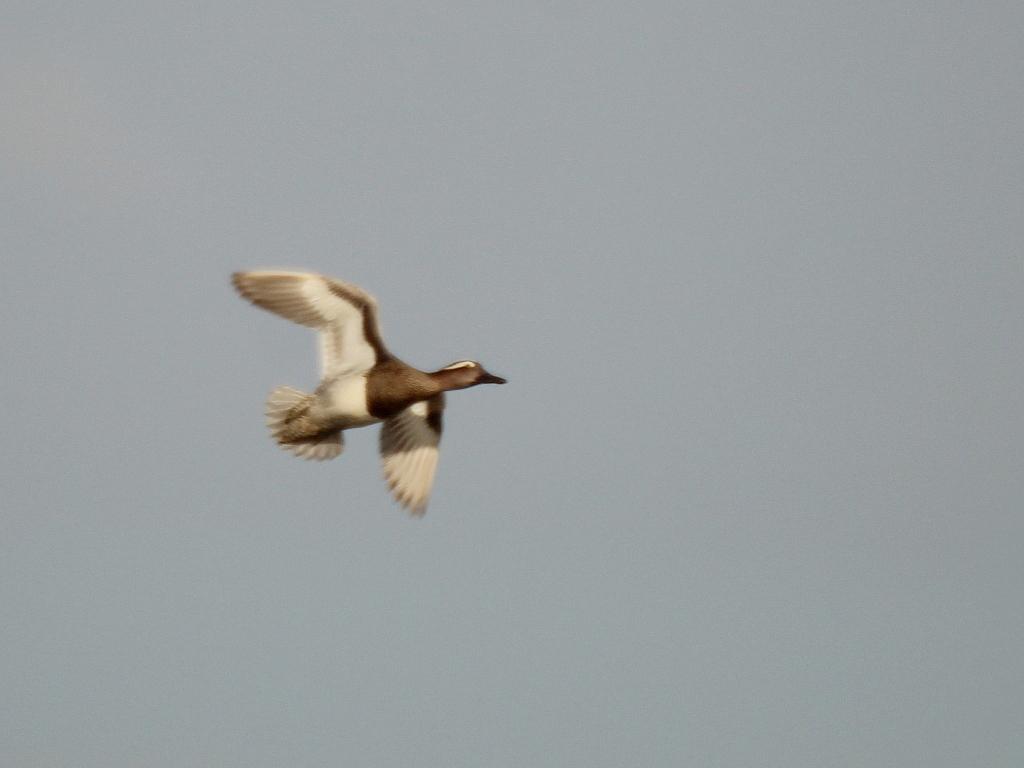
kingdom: Animalia
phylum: Chordata
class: Aves
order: Anseriformes
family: Anatidae
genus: Spatula
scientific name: Spatula querquedula
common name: Garganey
